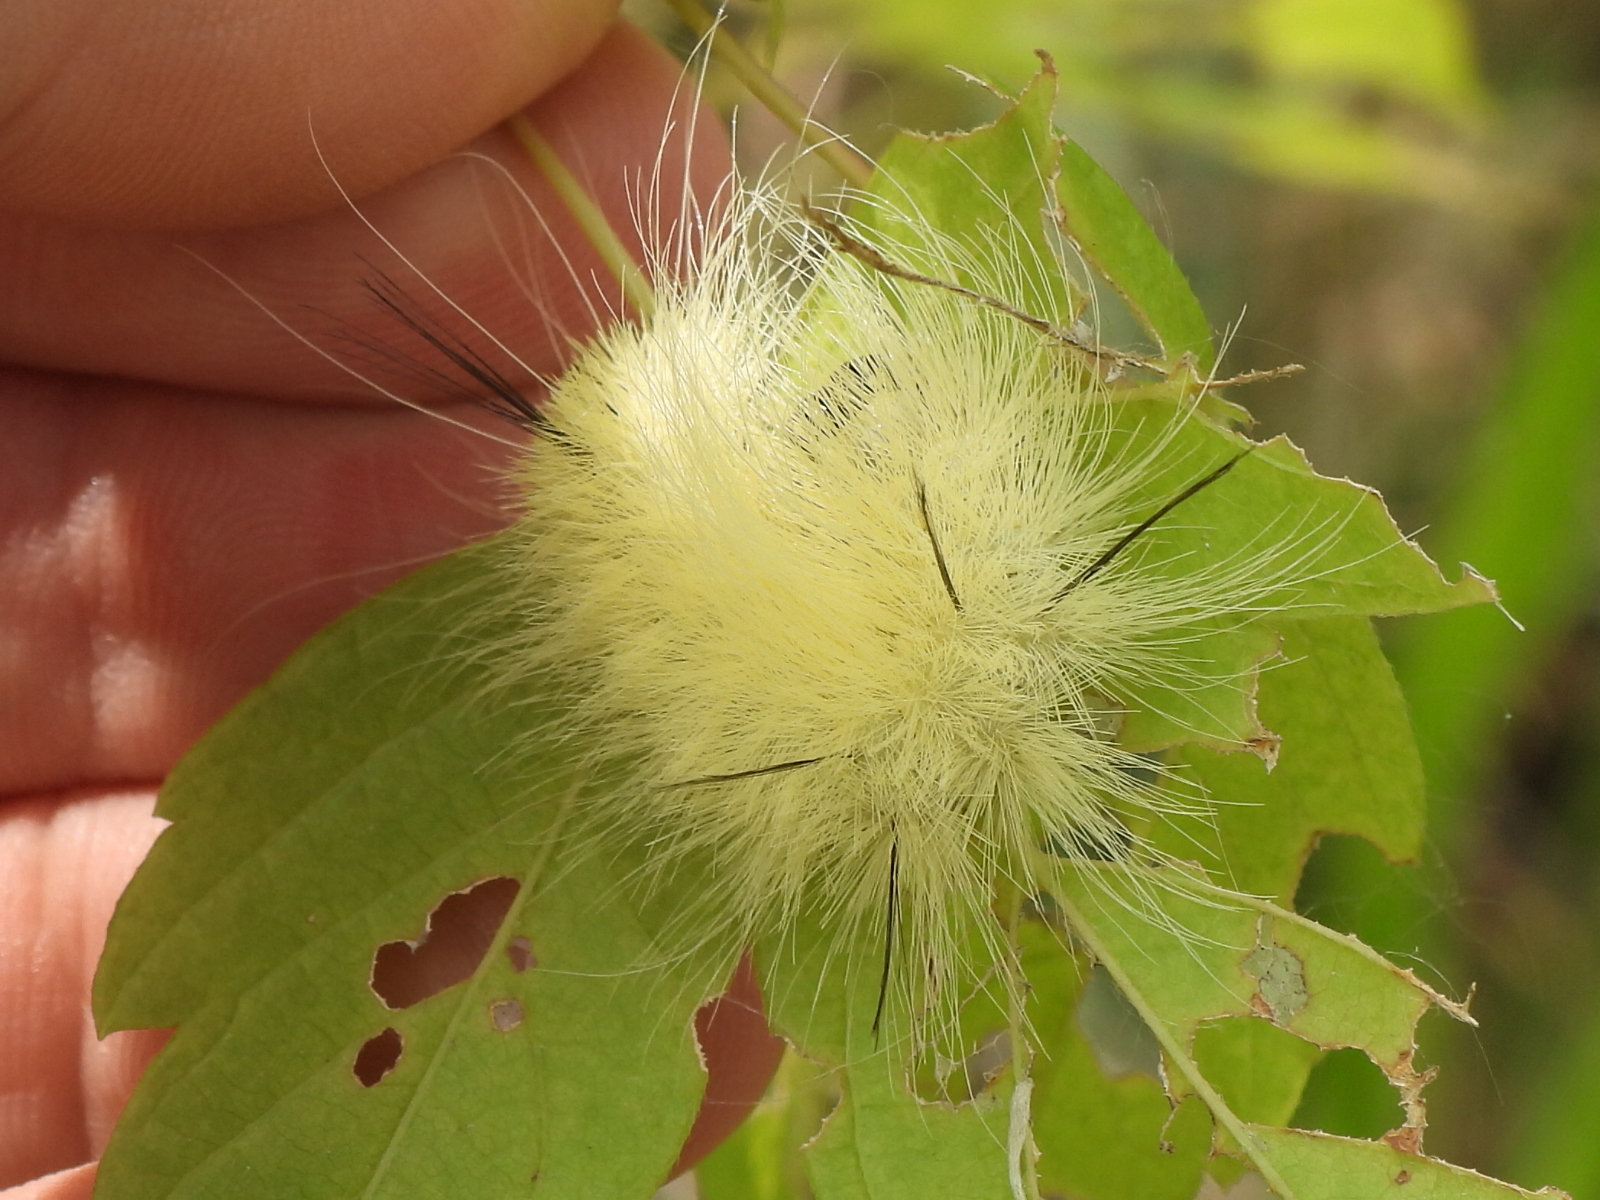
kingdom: Animalia
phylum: Arthropoda
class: Insecta
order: Lepidoptera
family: Noctuidae
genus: Acronicta
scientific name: Acronicta americana
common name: American dagger
